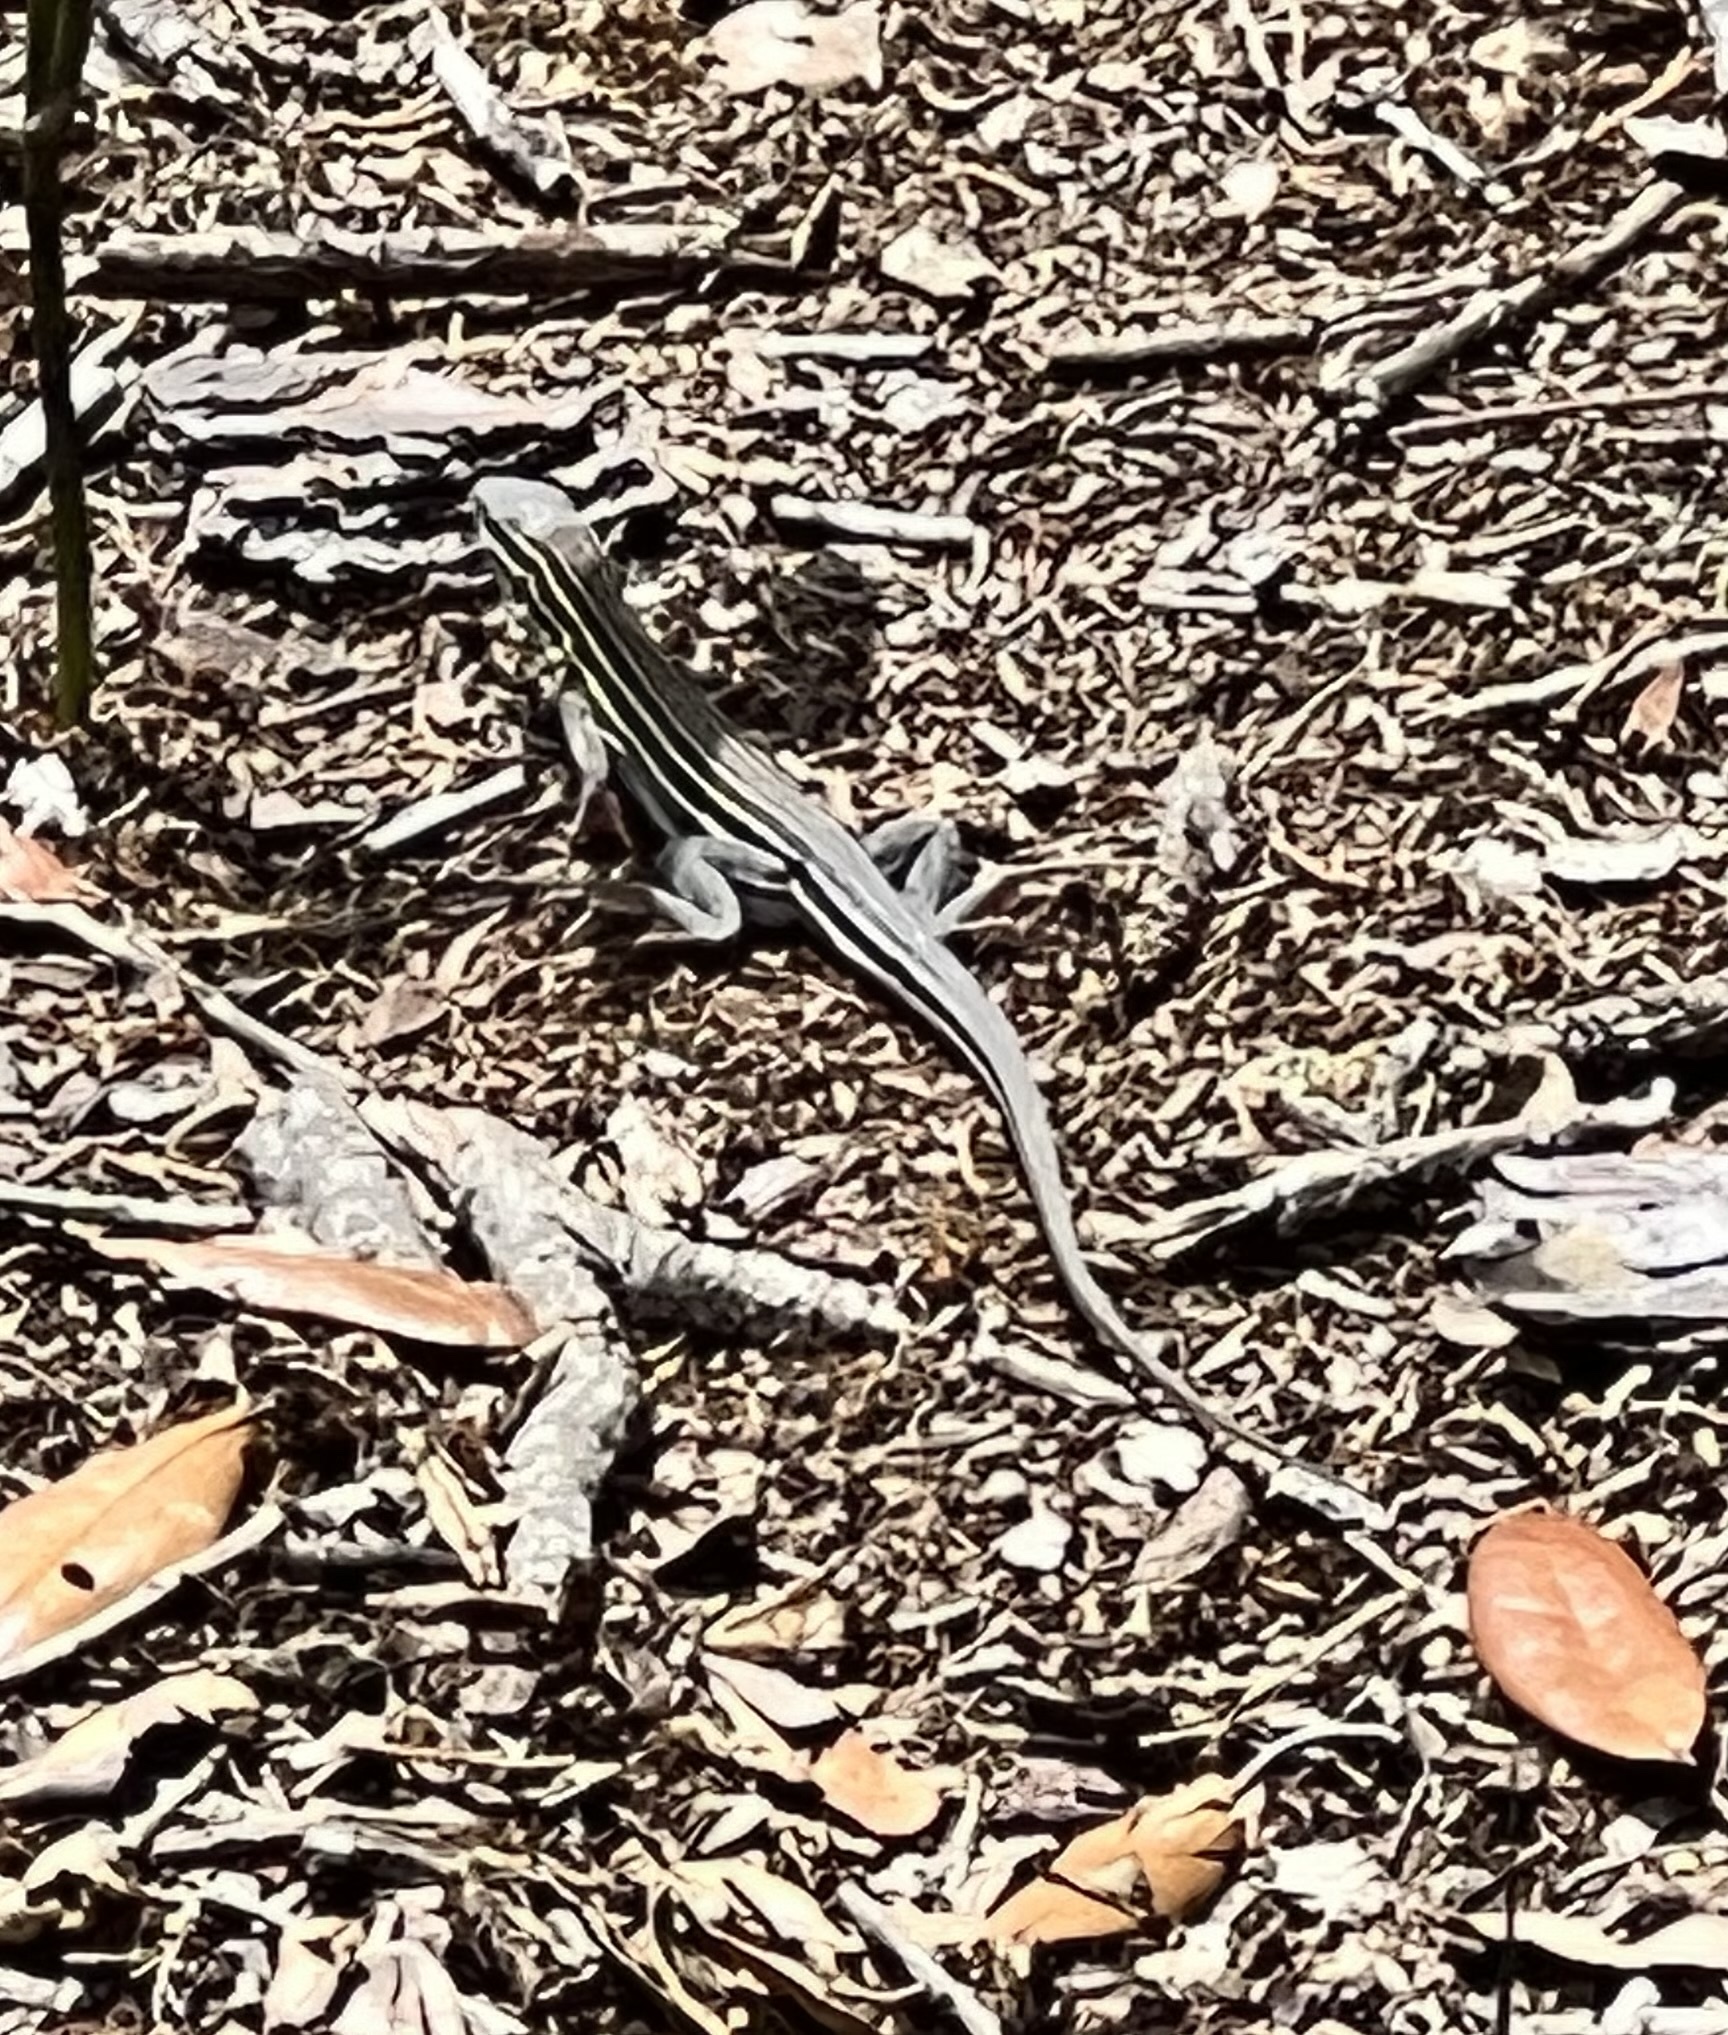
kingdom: Animalia
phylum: Chordata
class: Squamata
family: Teiidae
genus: Aspidoscelis
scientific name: Aspidoscelis sexlineatus
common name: Six-lined racerunner
